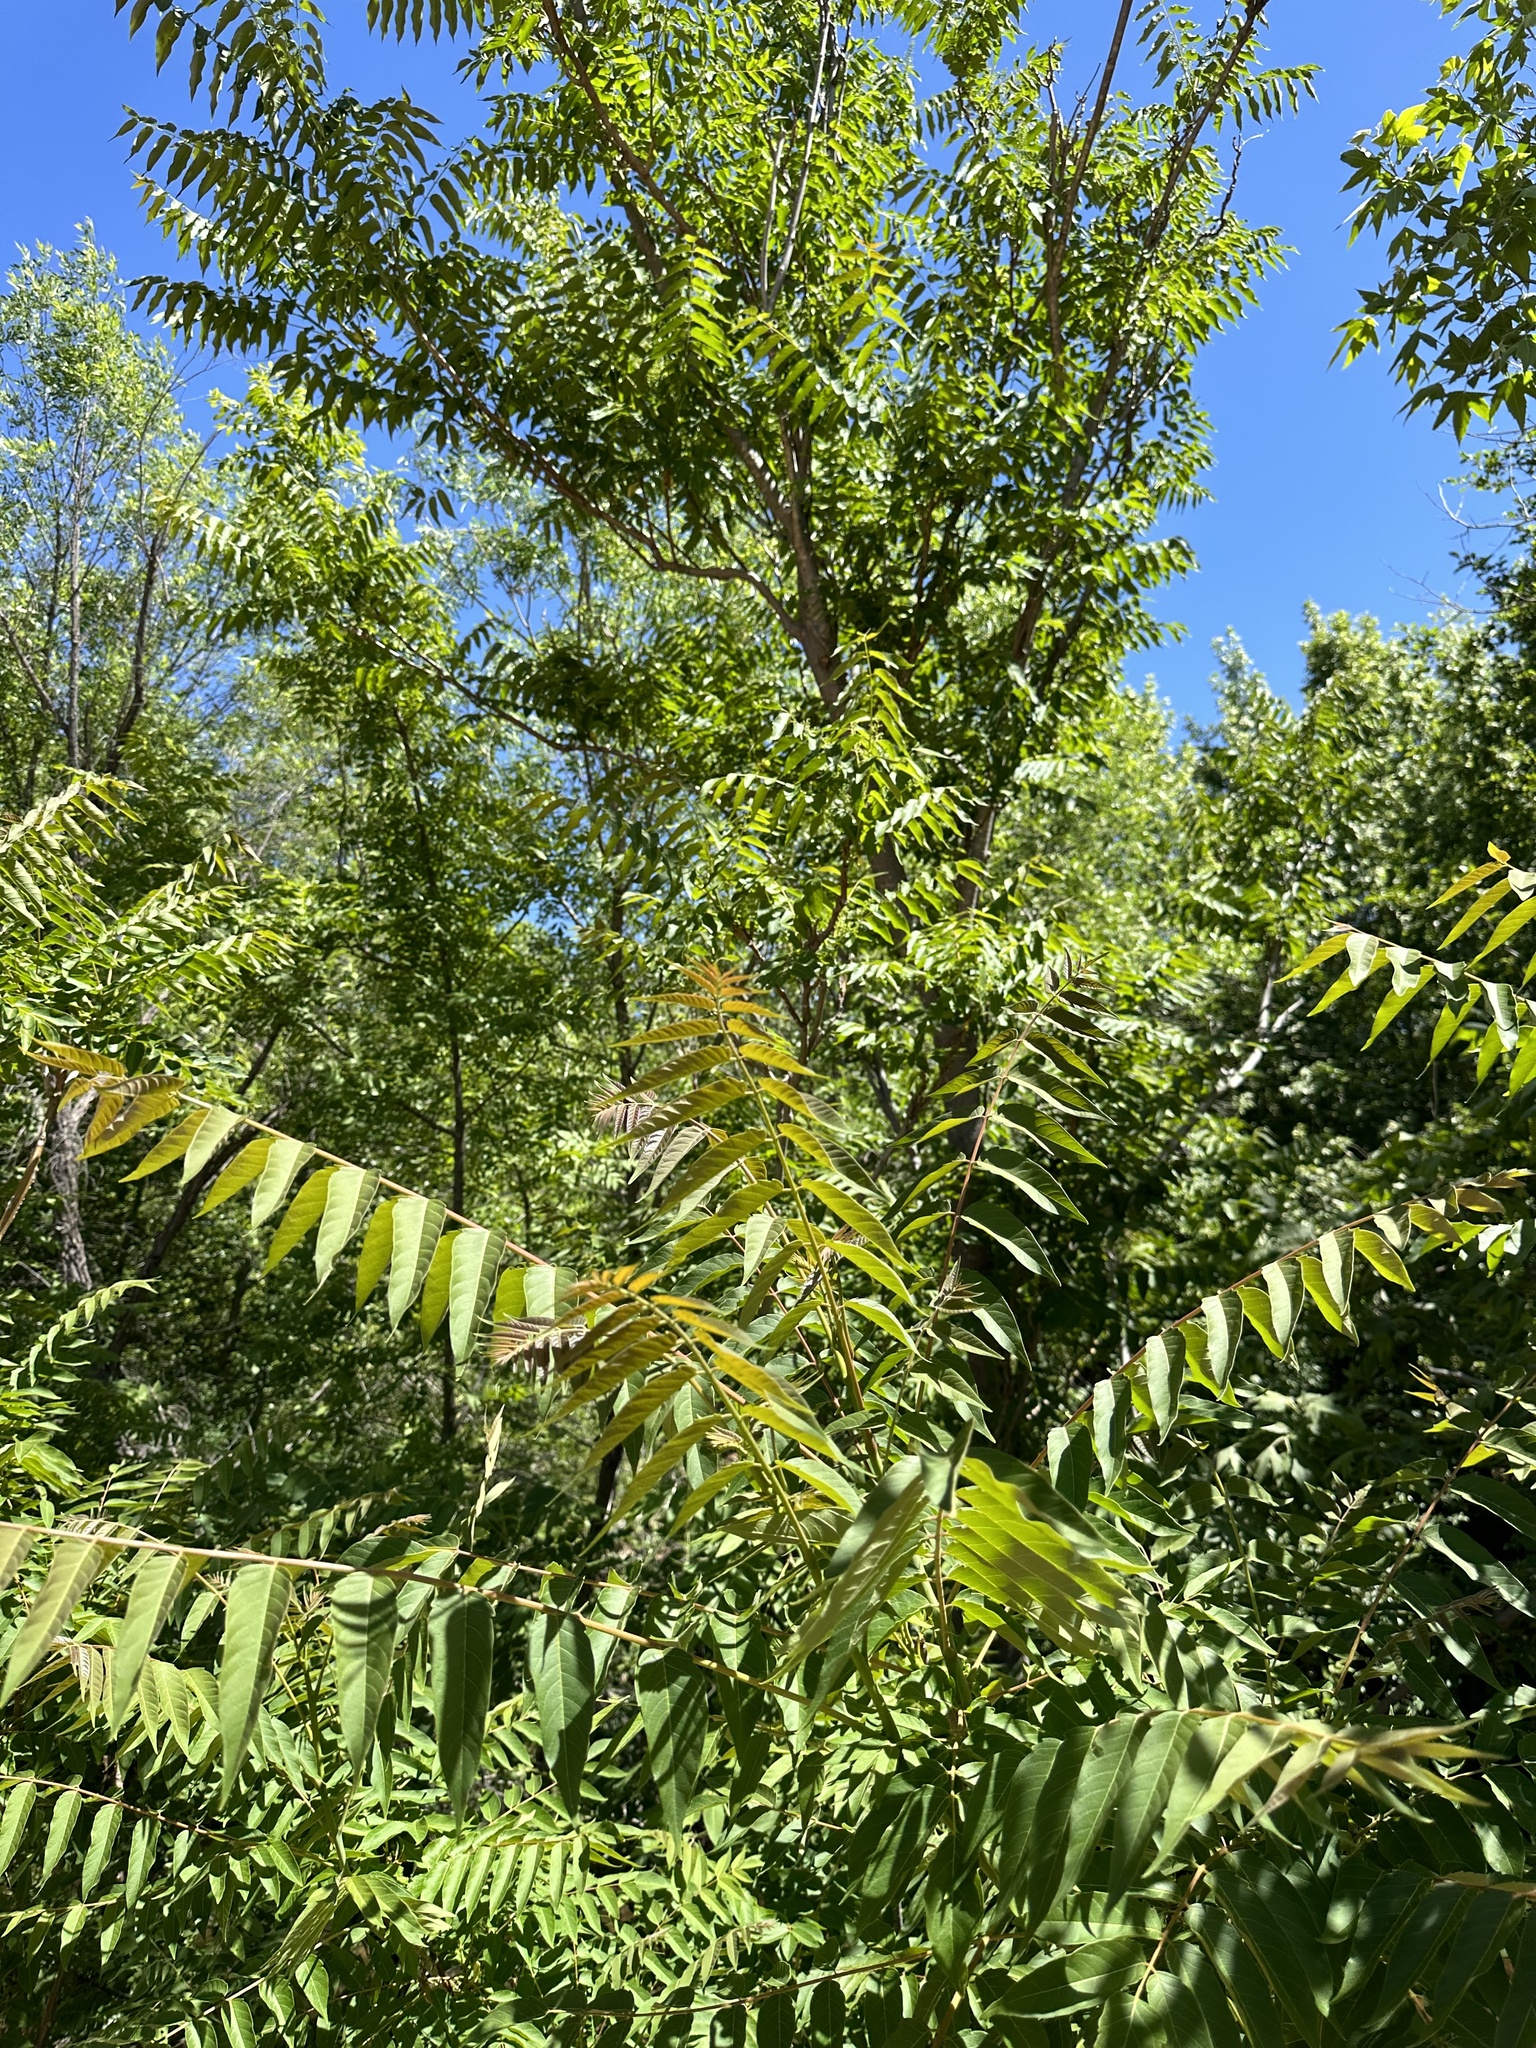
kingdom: Plantae
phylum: Tracheophyta
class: Magnoliopsida
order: Fagales
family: Juglandaceae
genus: Juglans
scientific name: Juglans major
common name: Arizona walnut
